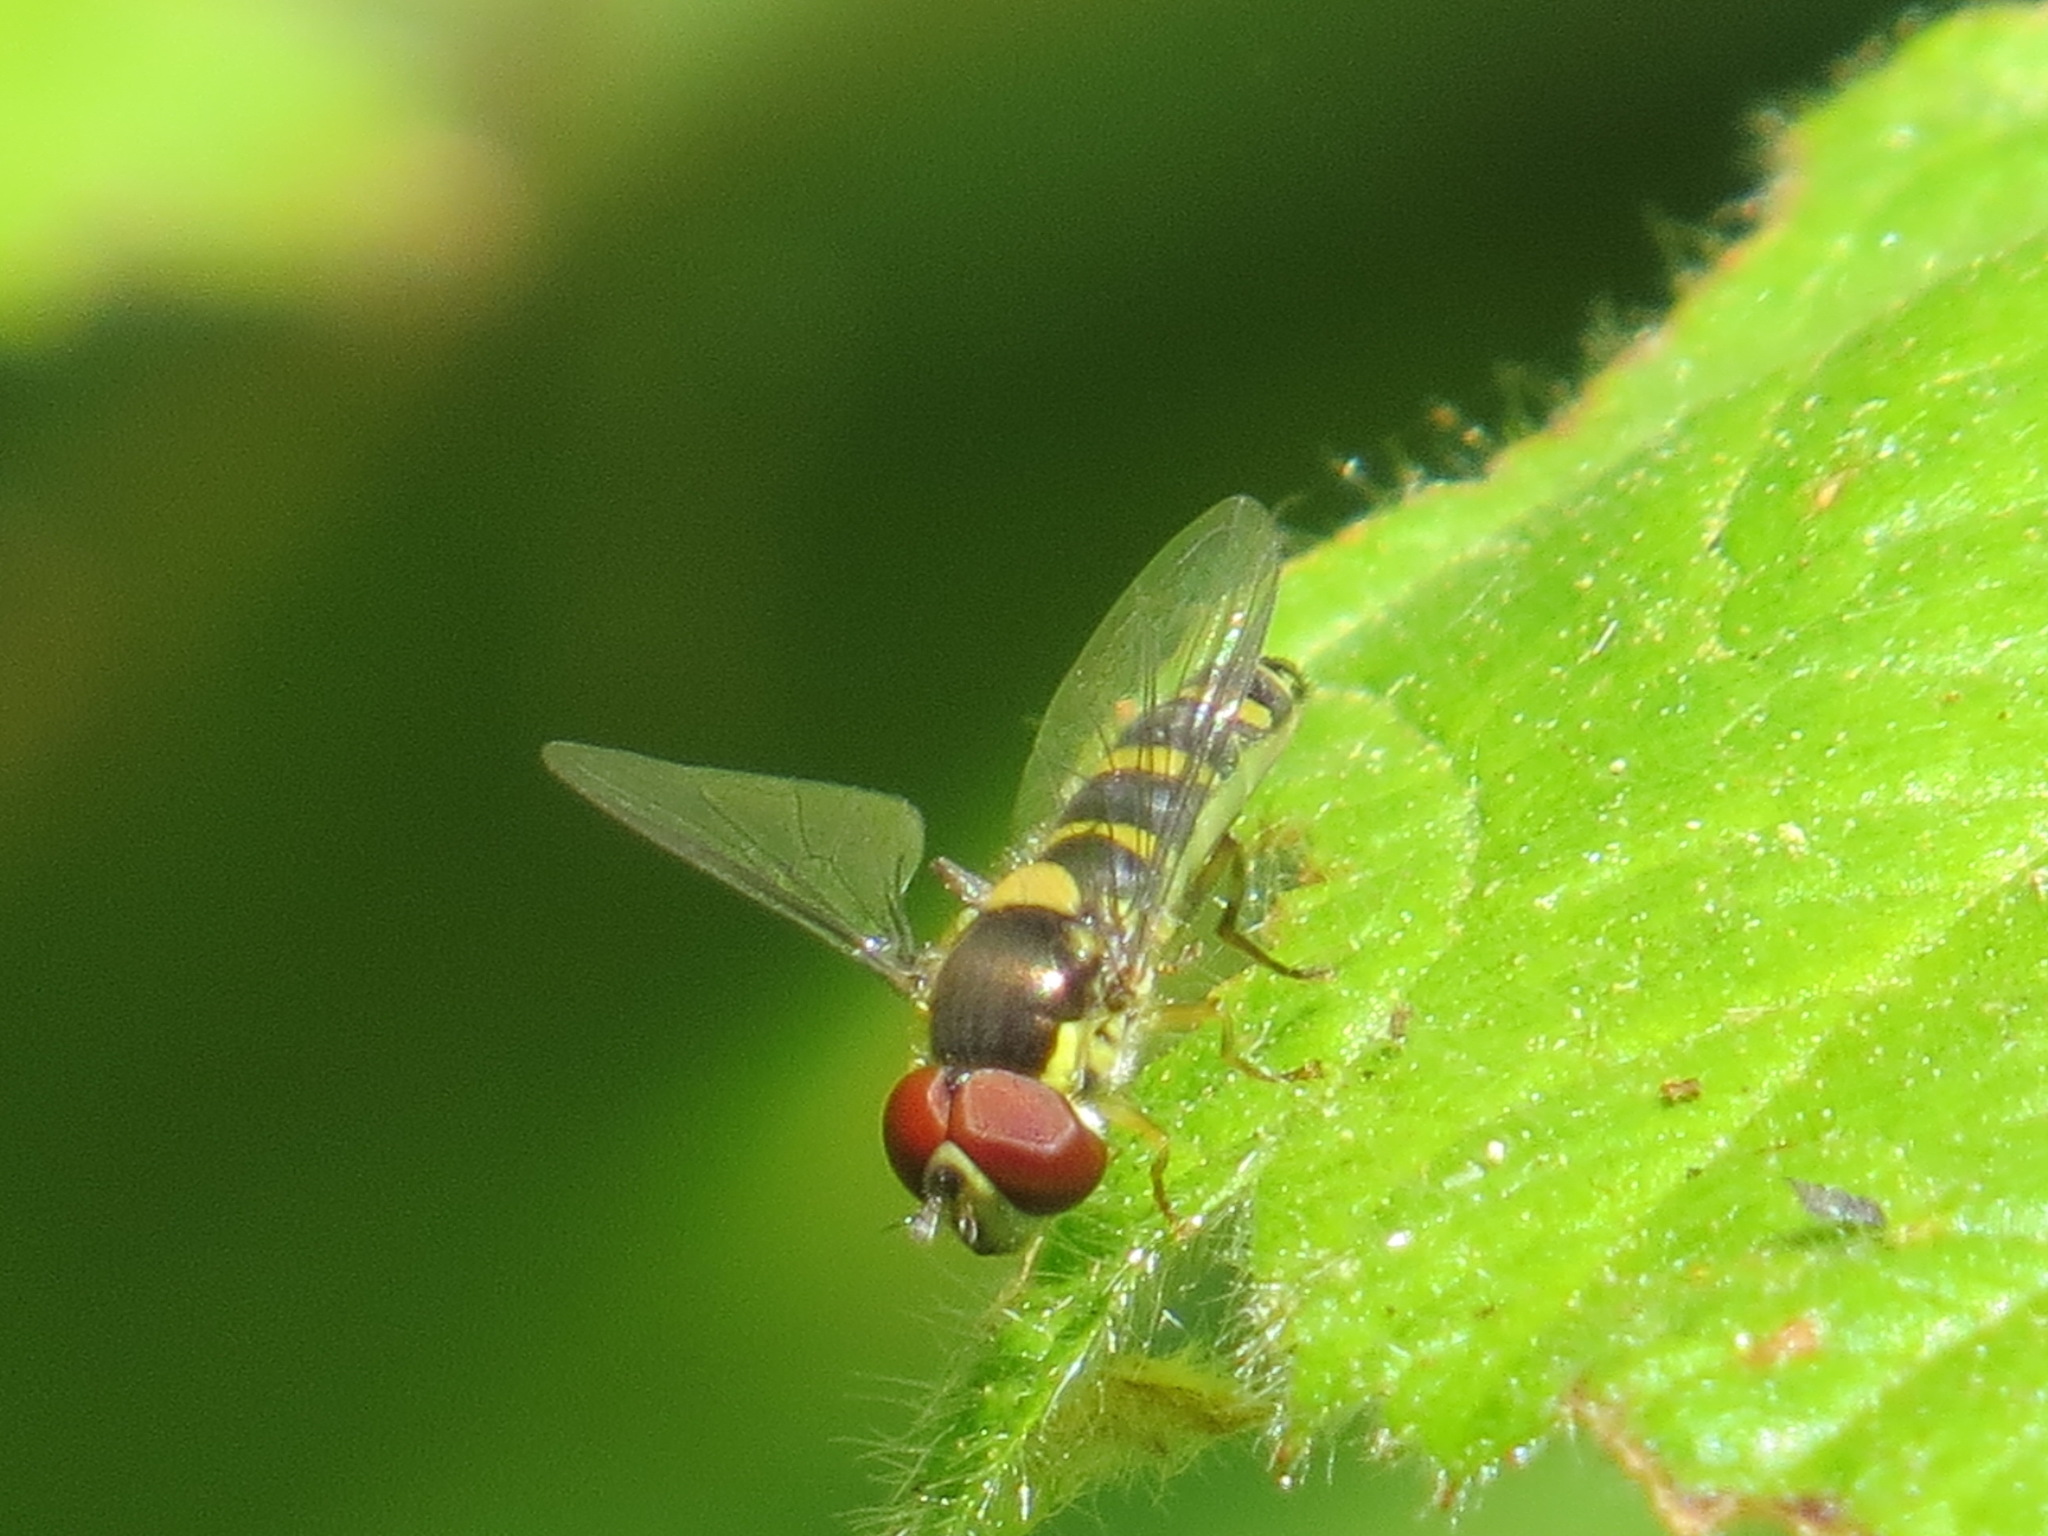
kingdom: Animalia
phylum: Arthropoda
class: Insecta
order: Diptera
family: Syrphidae
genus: Fazia
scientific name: Fazia micrura
